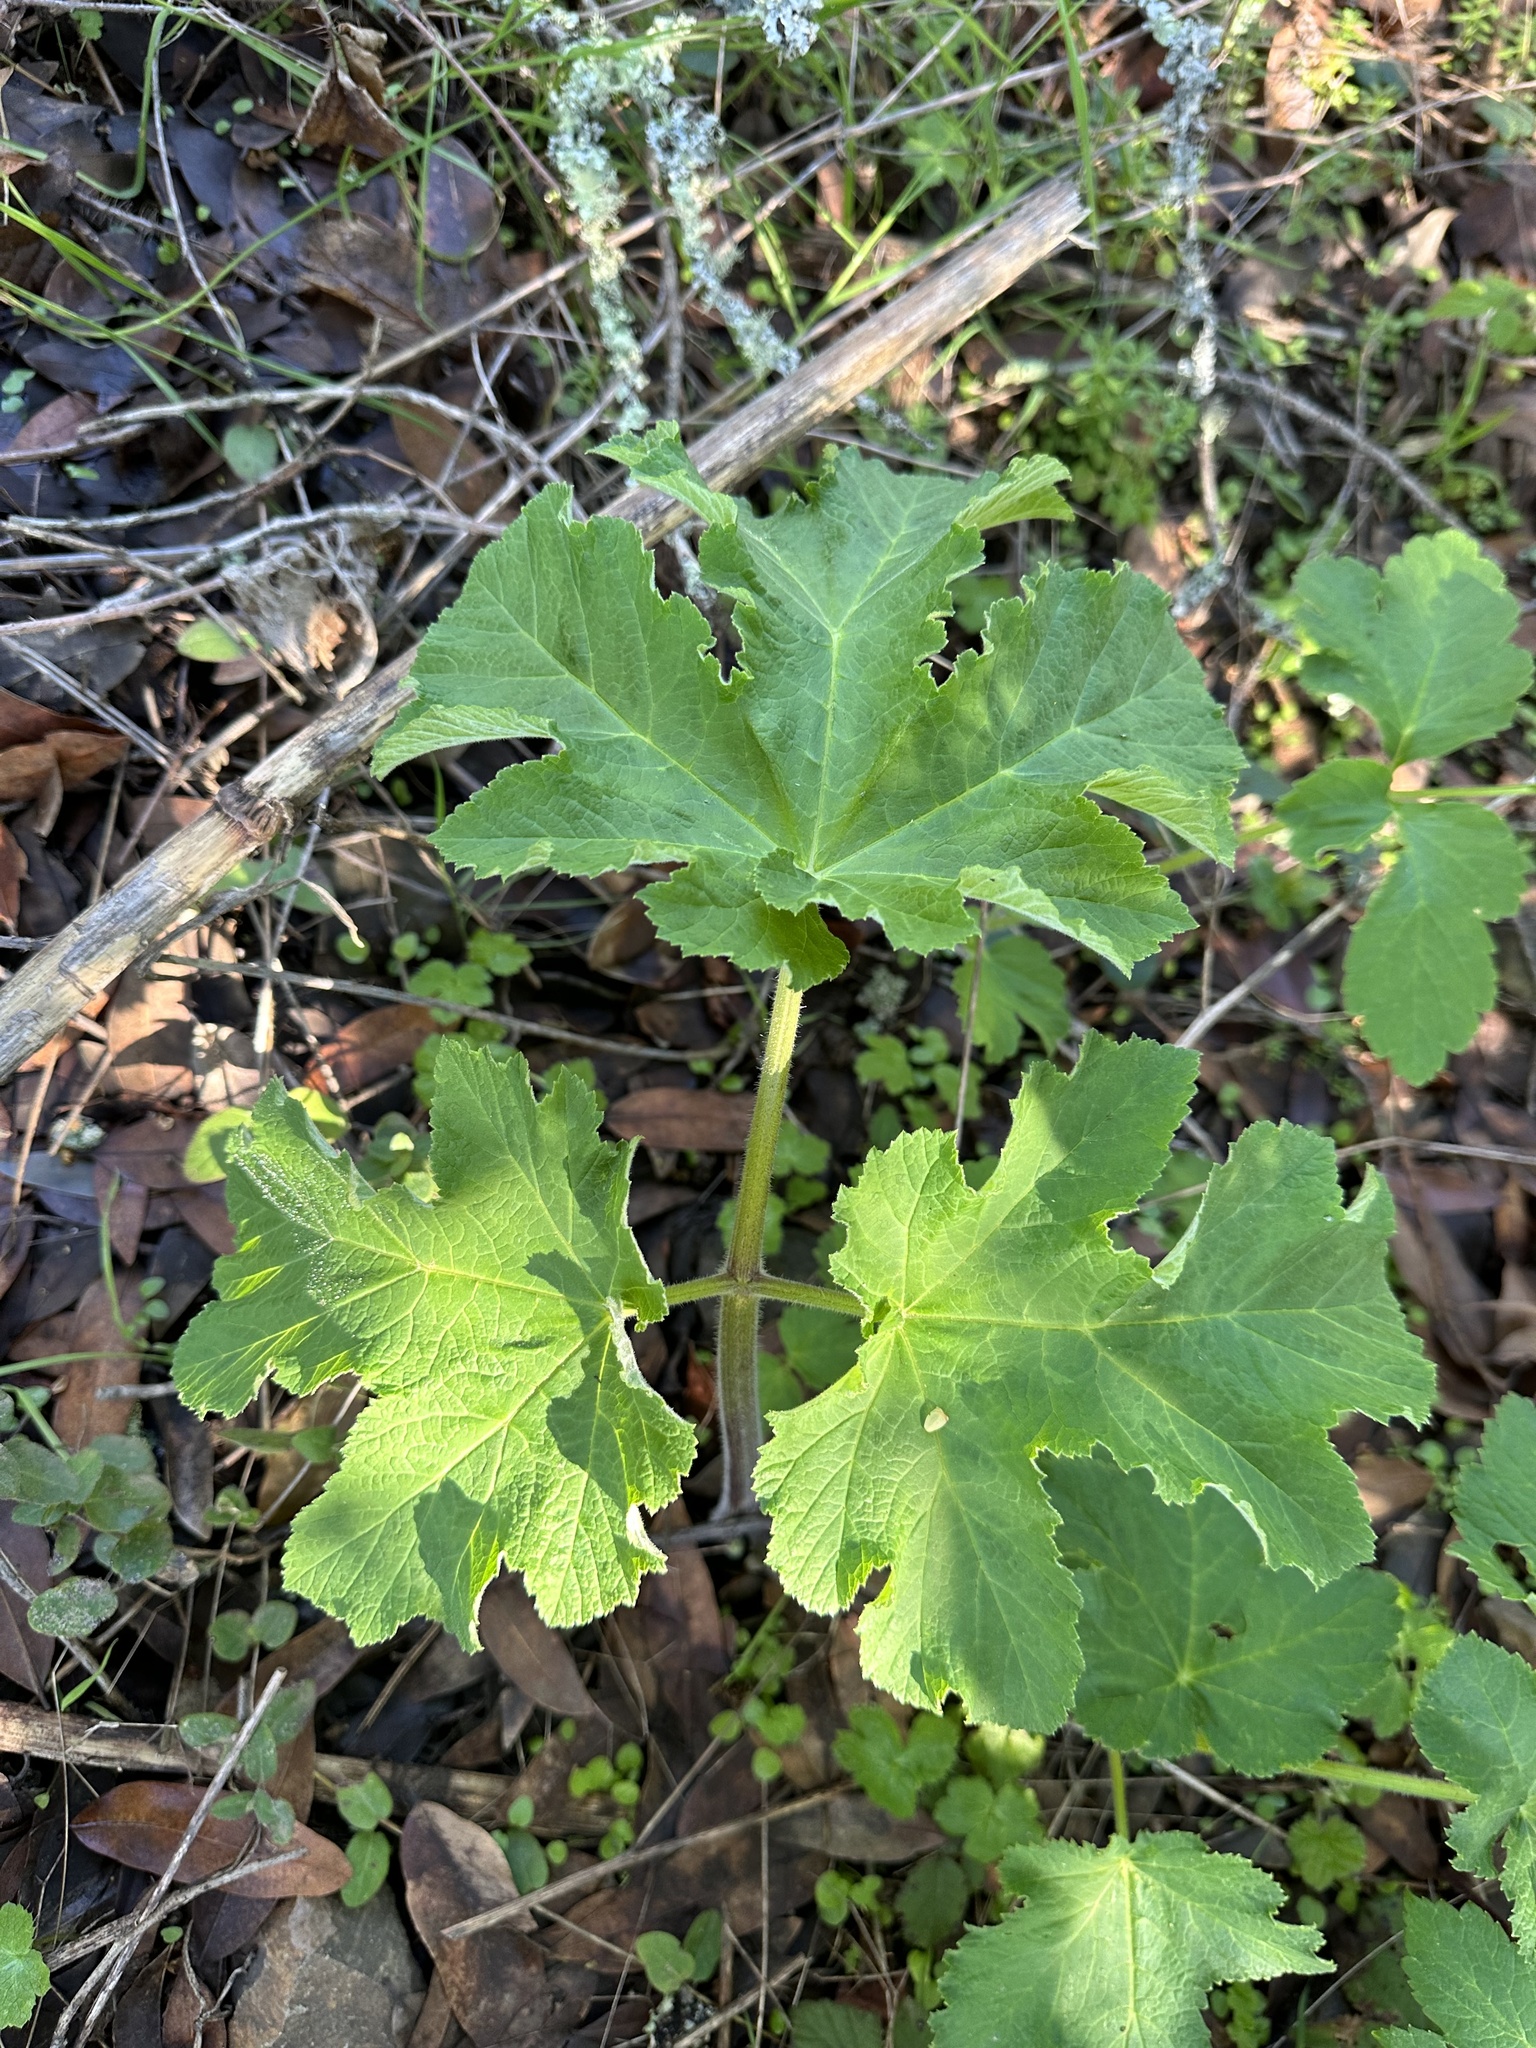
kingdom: Plantae
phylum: Tracheophyta
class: Magnoliopsida
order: Apiales
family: Apiaceae
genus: Heracleum
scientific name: Heracleum maximum
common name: American cow parsnip
